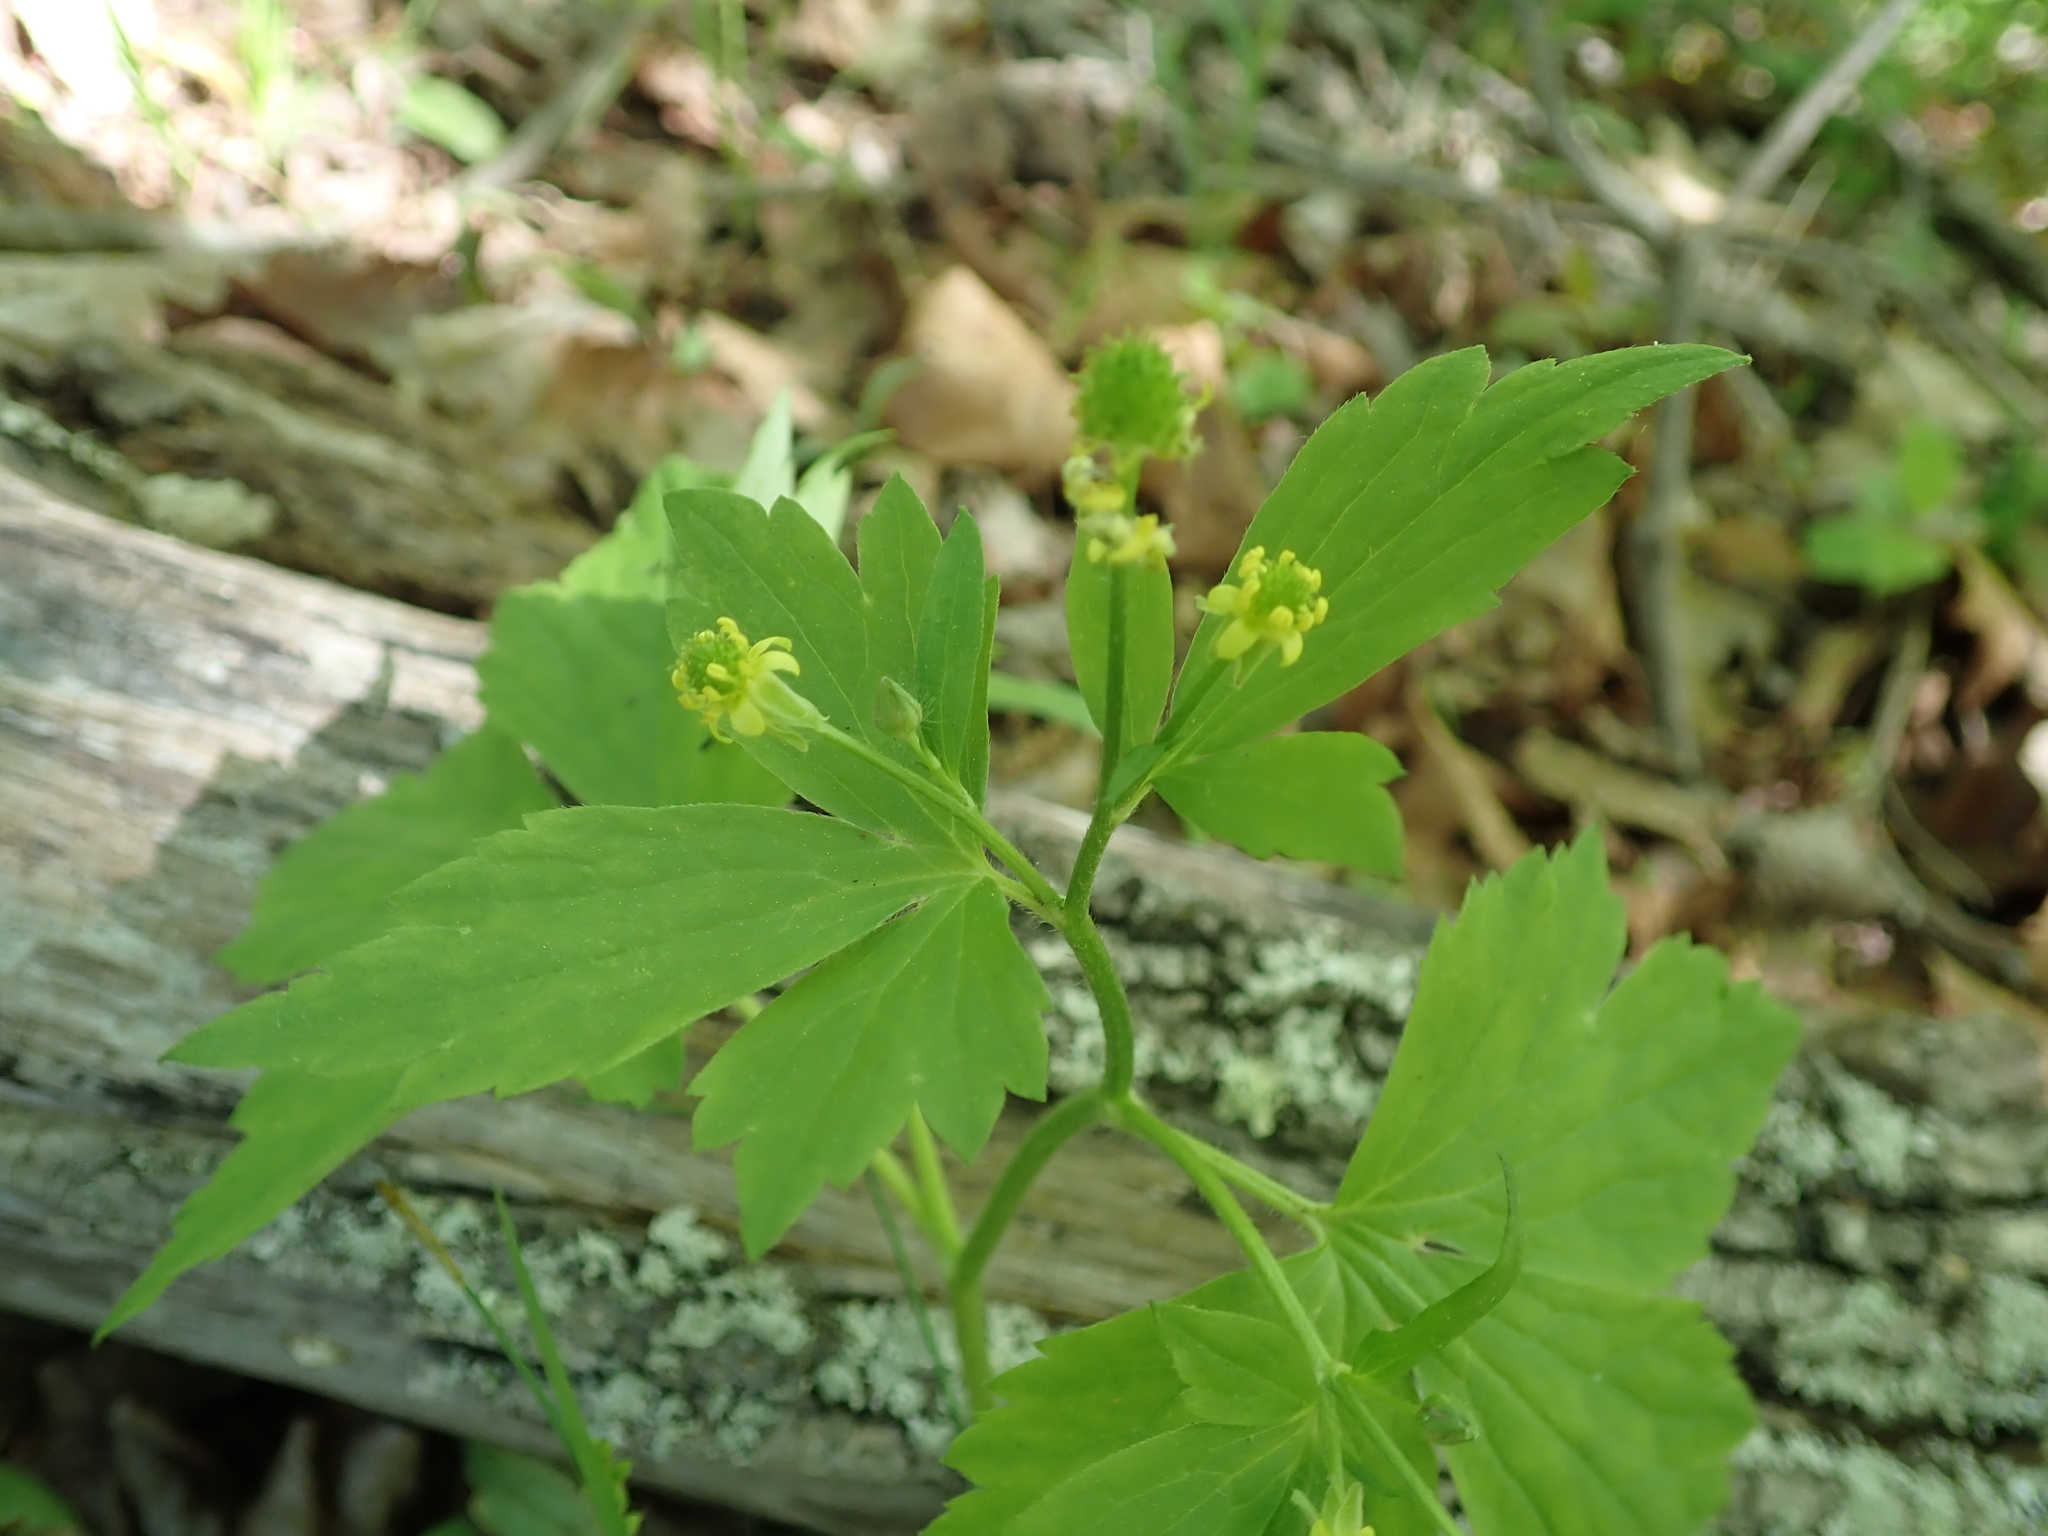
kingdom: Plantae
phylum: Tracheophyta
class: Magnoliopsida
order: Ranunculales
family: Ranunculaceae
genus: Ranunculus
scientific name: Ranunculus recurvatus
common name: Blisterwort
